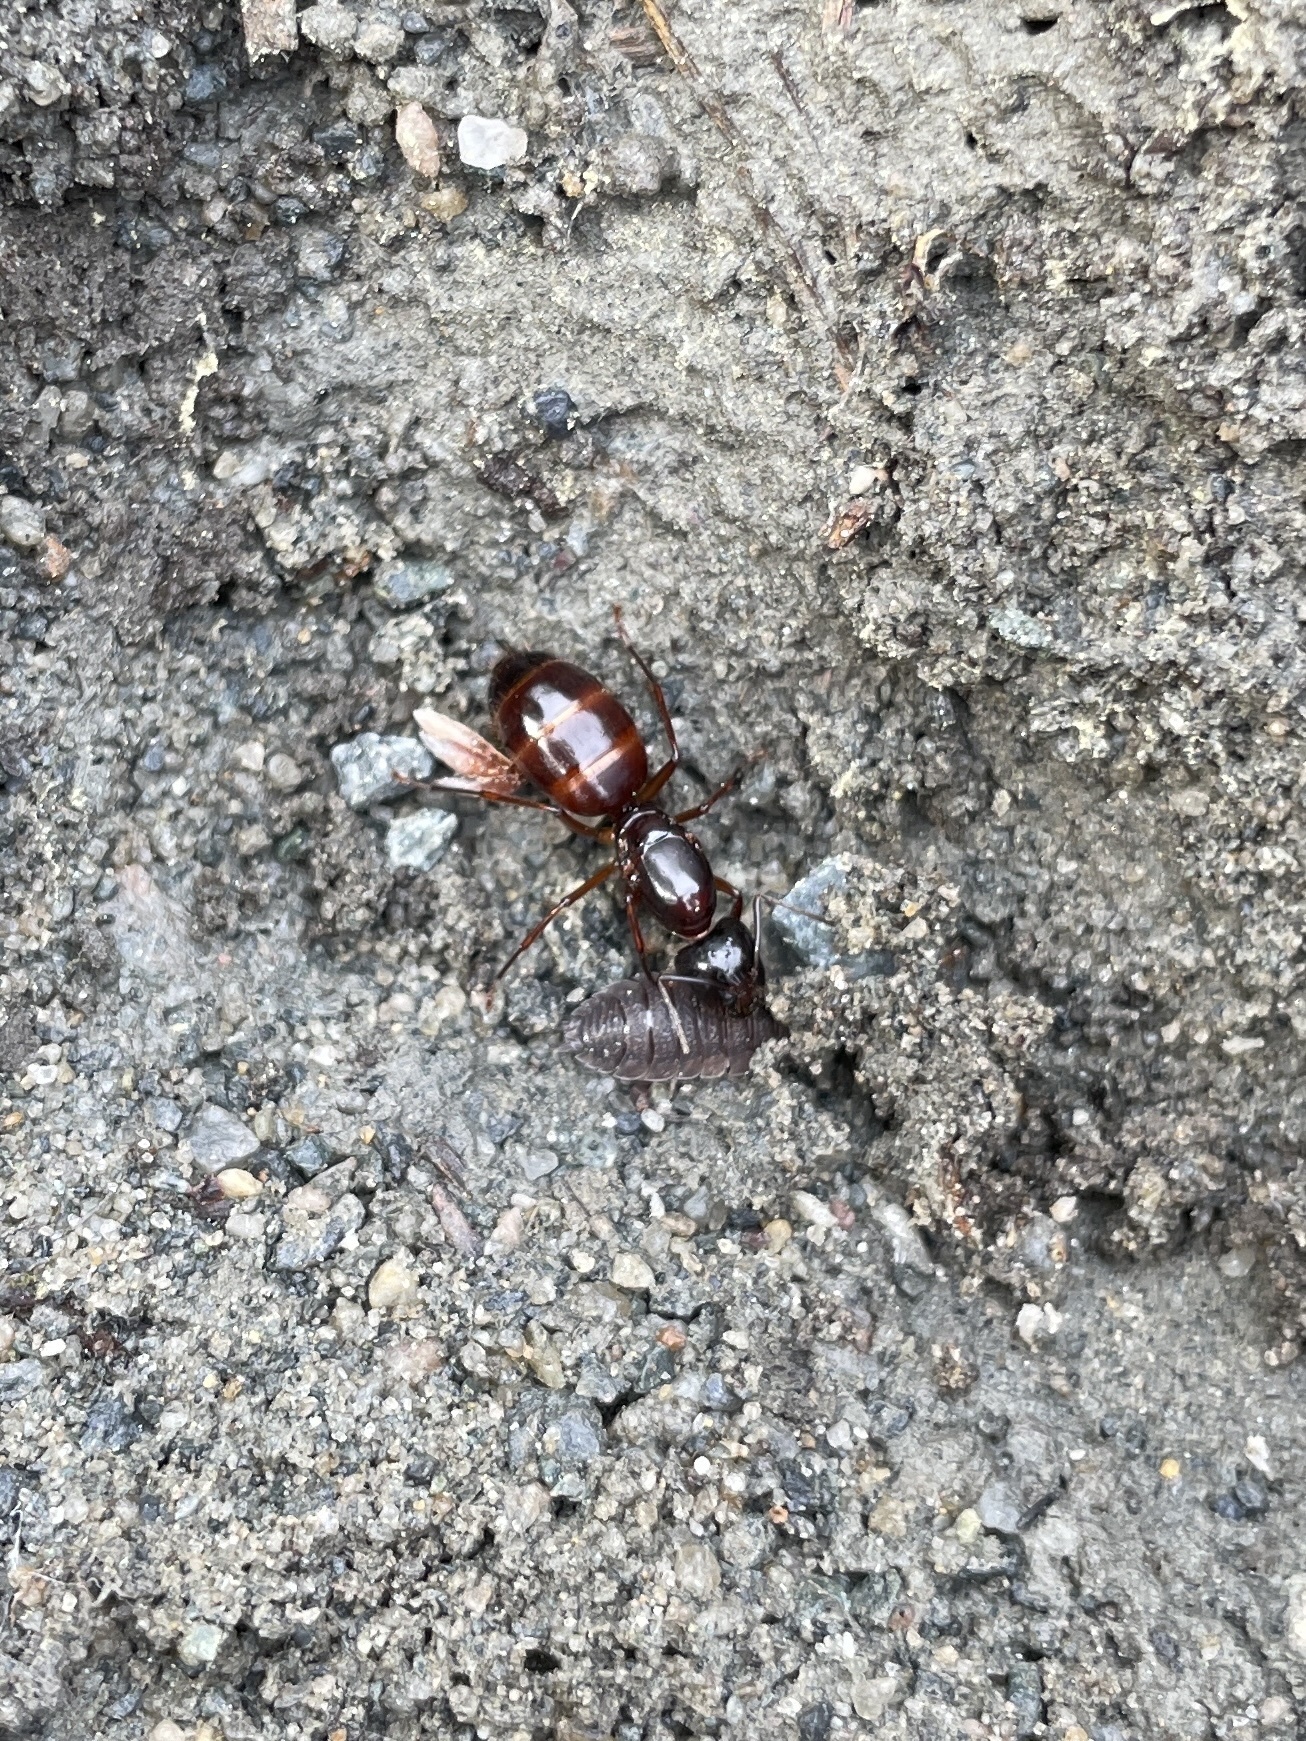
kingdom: Animalia
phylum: Arthropoda
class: Insecta
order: Hymenoptera
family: Formicidae
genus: Camponotus
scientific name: Camponotus americanus
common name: American carpenter ant
